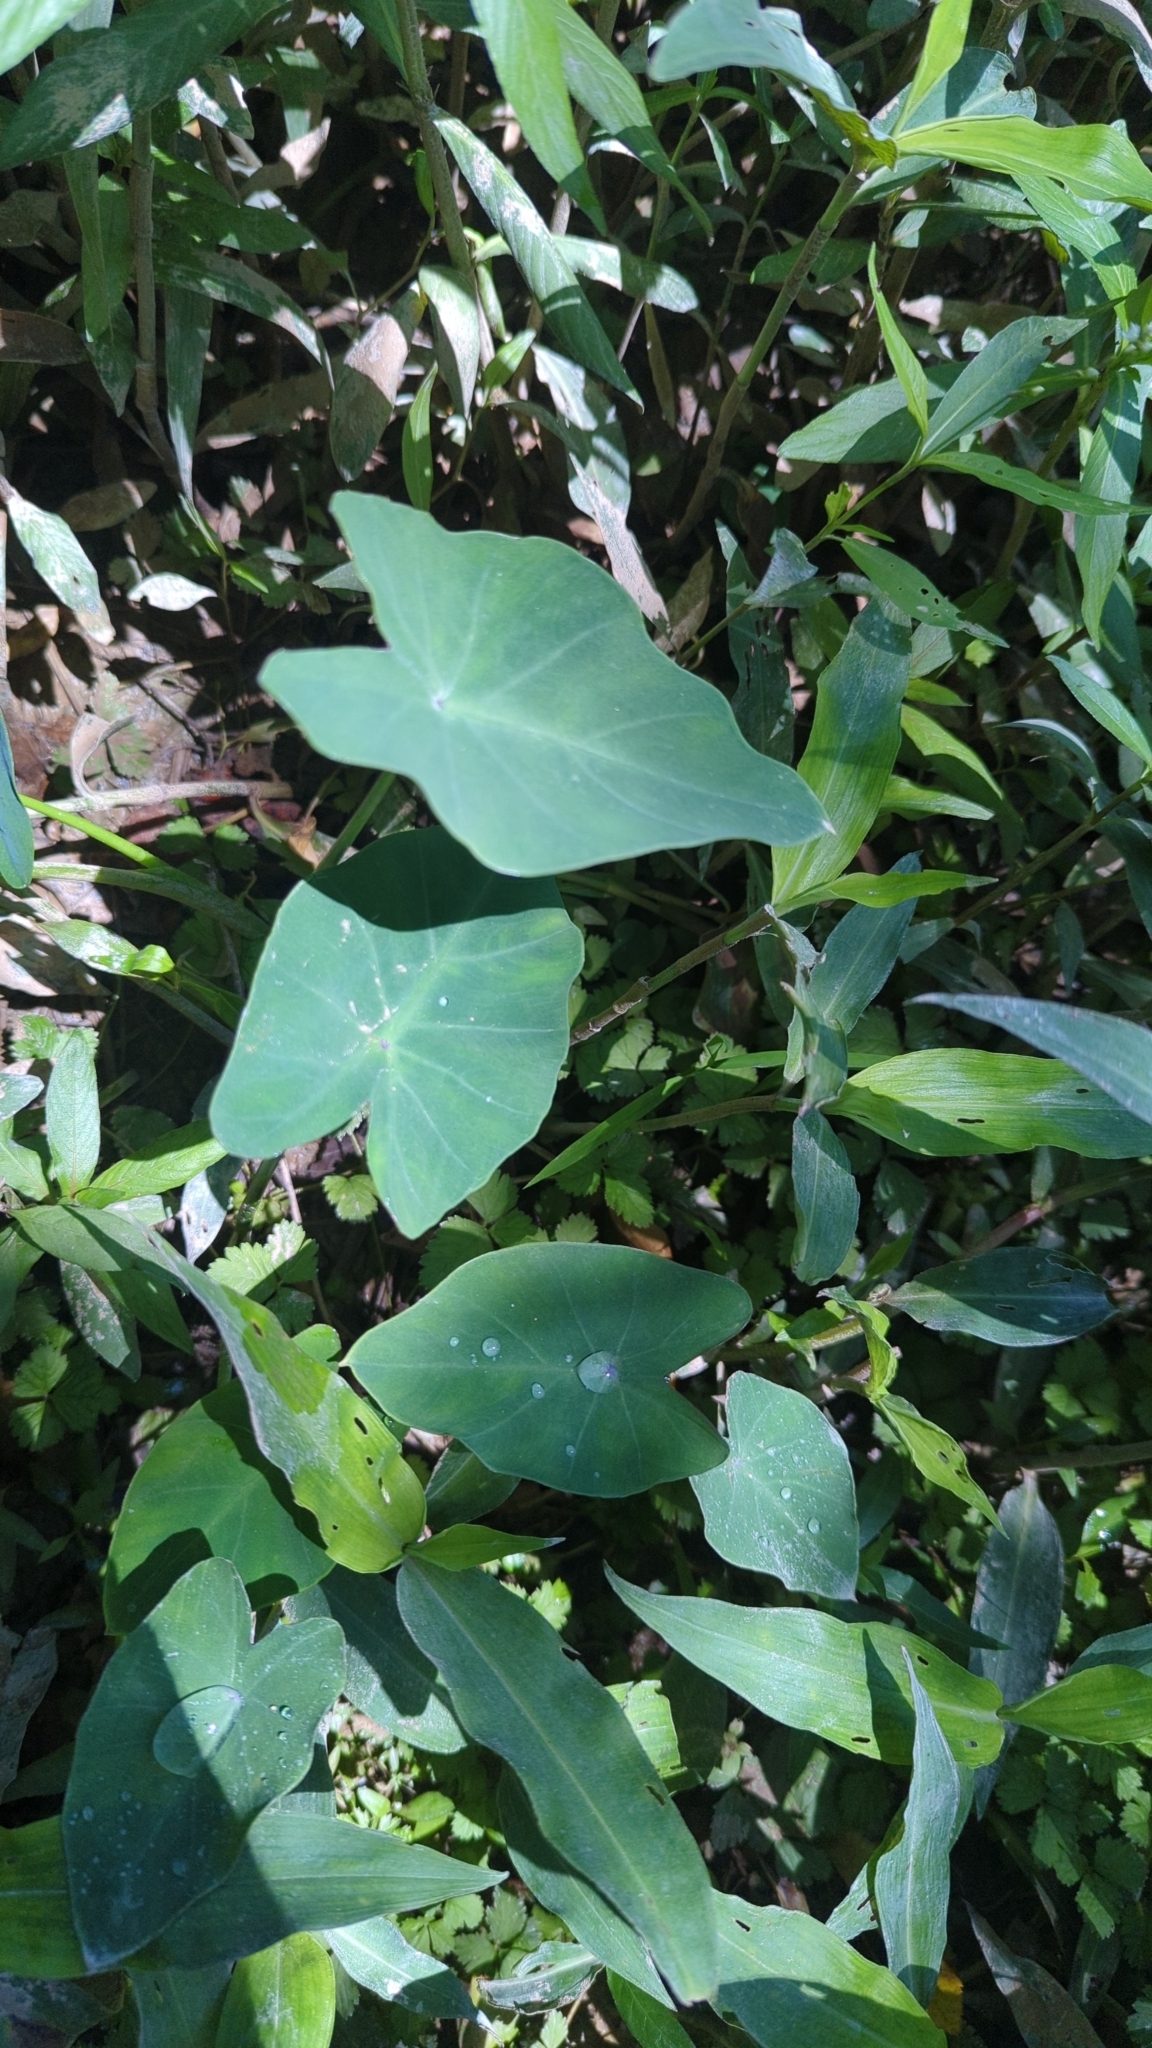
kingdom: Plantae
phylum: Tracheophyta
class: Liliopsida
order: Alismatales
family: Araceae
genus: Colocasia
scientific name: Colocasia esculenta
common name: Taro
